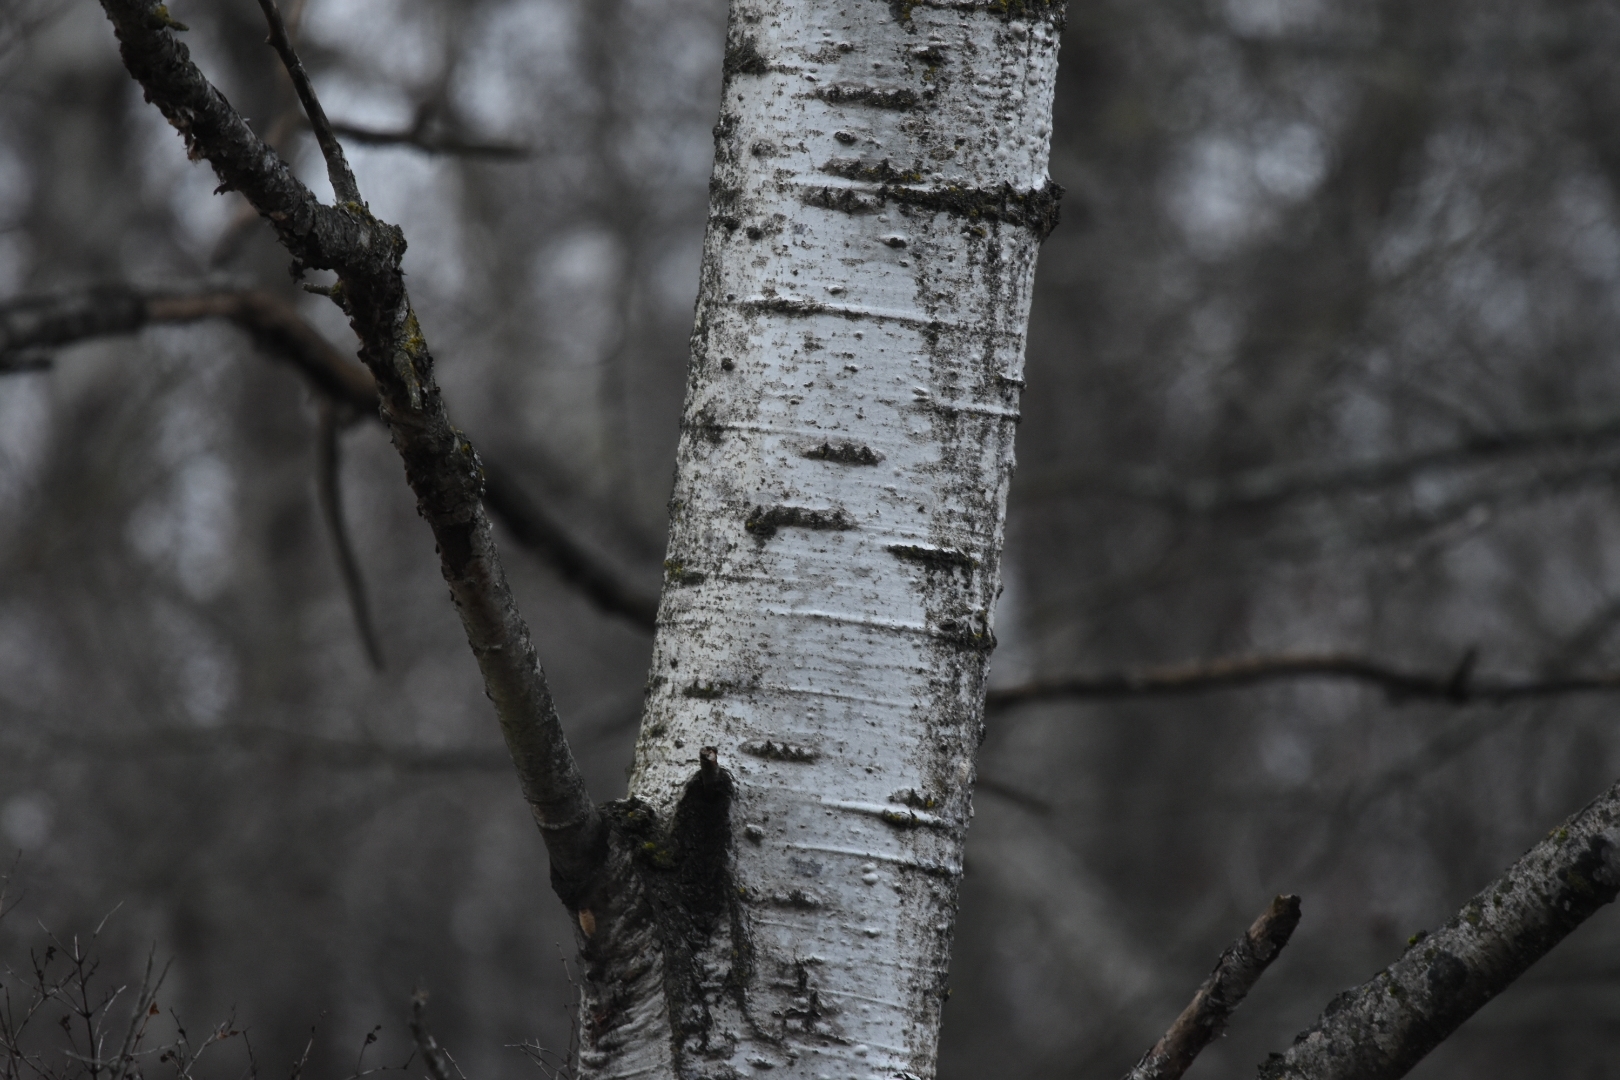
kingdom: Plantae
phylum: Tracheophyta
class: Magnoliopsida
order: Malpighiales
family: Salicaceae
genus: Populus
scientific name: Populus tremuloides
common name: Quaking aspen
